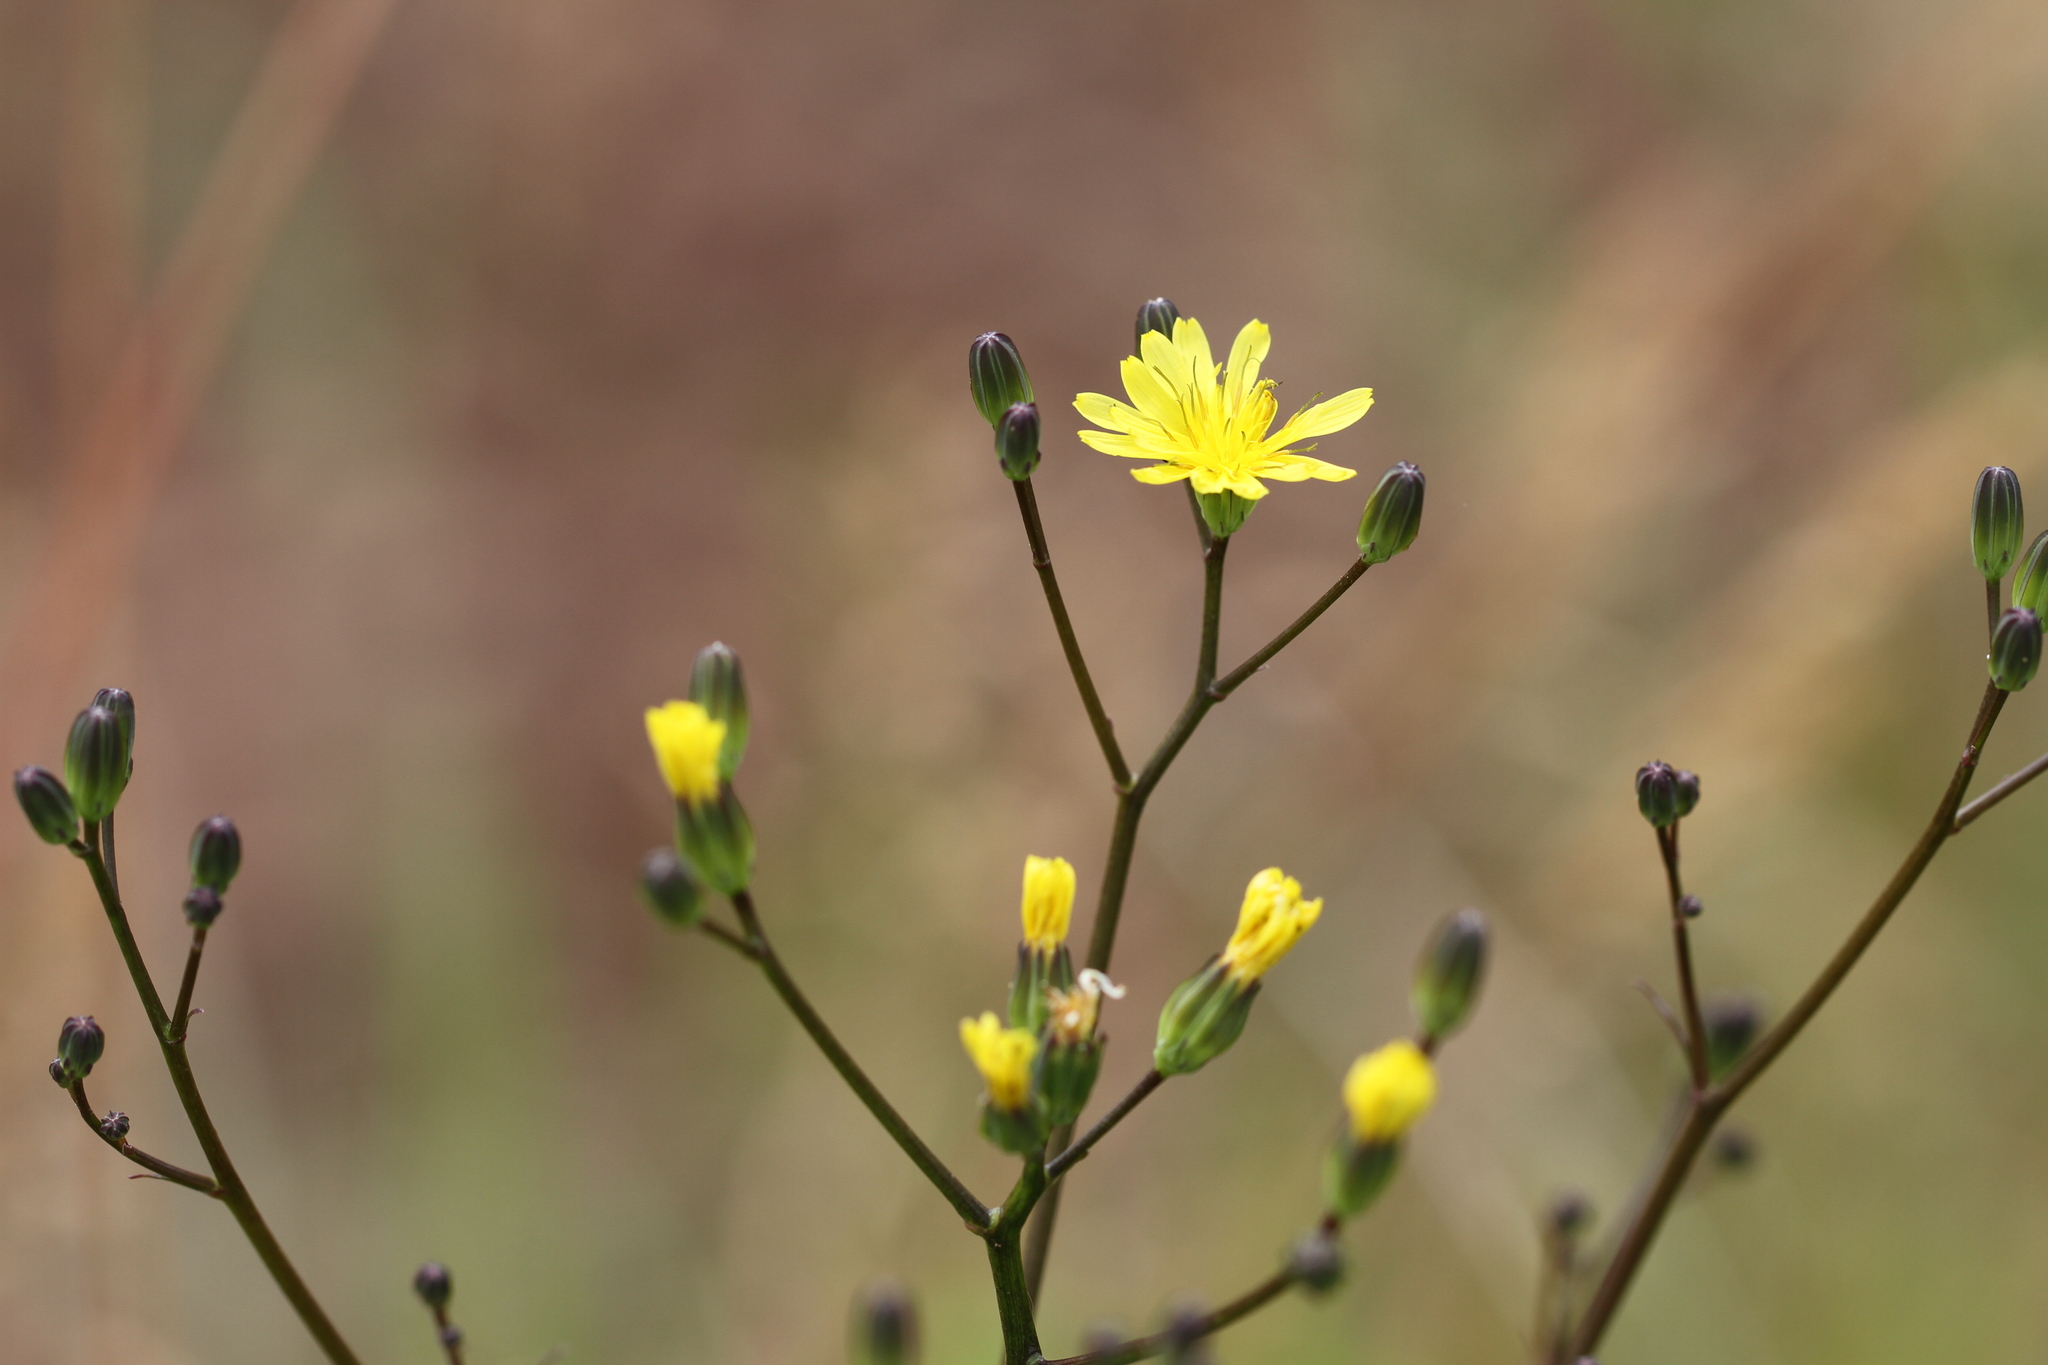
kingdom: Plantae
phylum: Tracheophyta
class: Magnoliopsida
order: Asterales
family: Asteraceae
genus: Lapsana
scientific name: Lapsana communis
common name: Nipplewort
